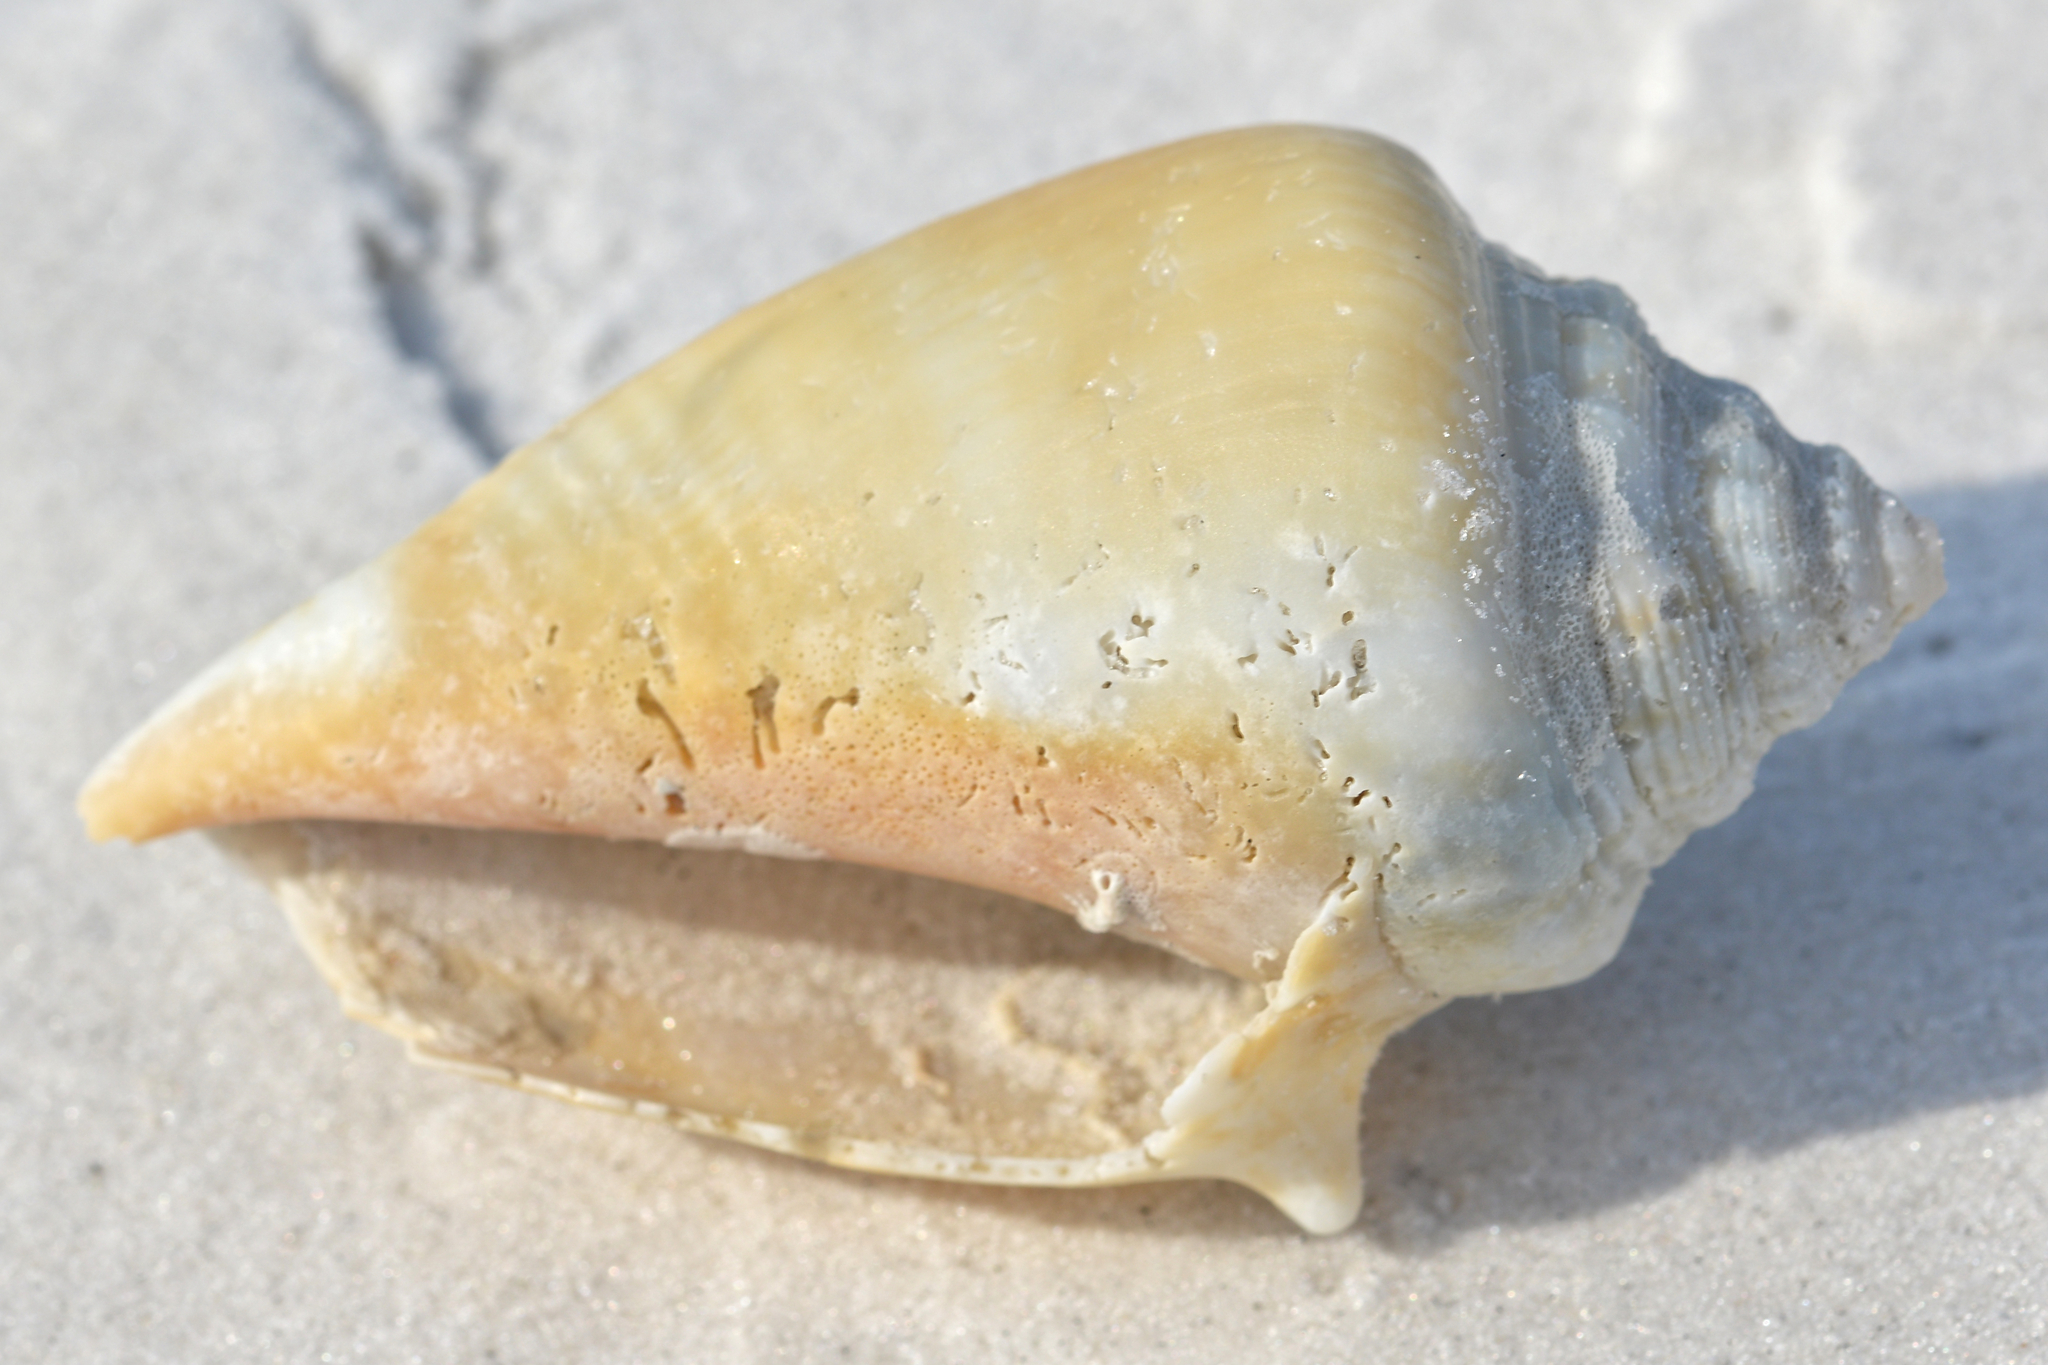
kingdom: Animalia
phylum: Mollusca
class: Gastropoda
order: Littorinimorpha
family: Strombidae
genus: Strombus
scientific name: Strombus alatus
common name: Florida fighting conch
